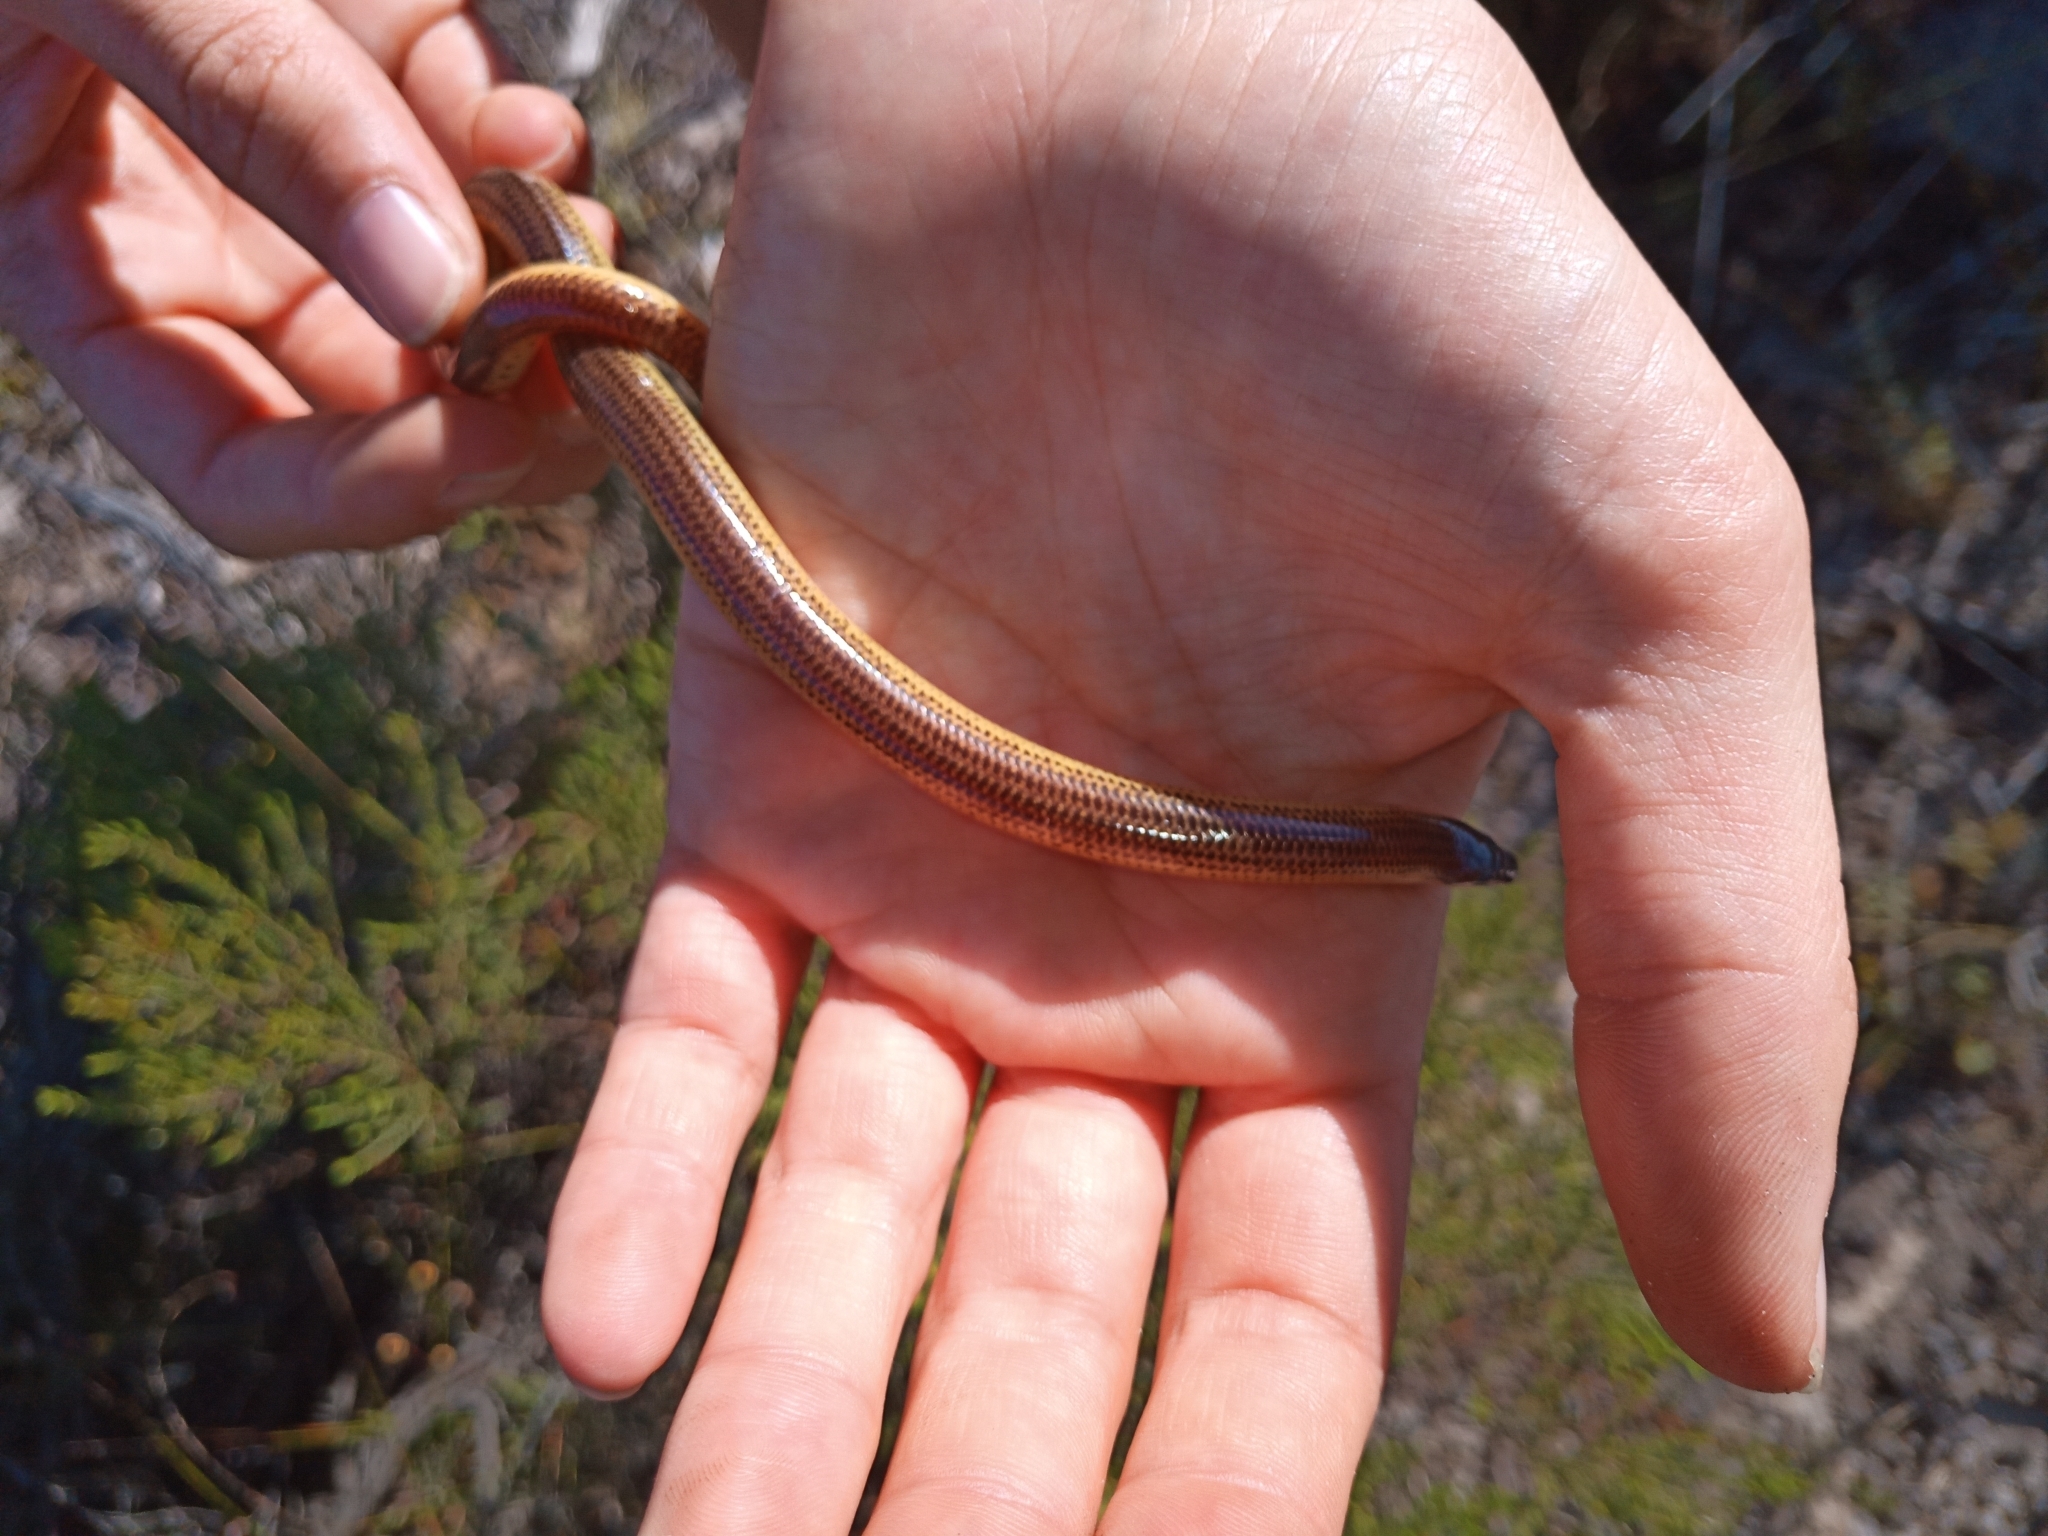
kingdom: Animalia
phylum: Chordata
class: Squamata
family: Scincidae
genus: Acontias
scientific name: Acontias meleagris
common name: Cape legless skink
